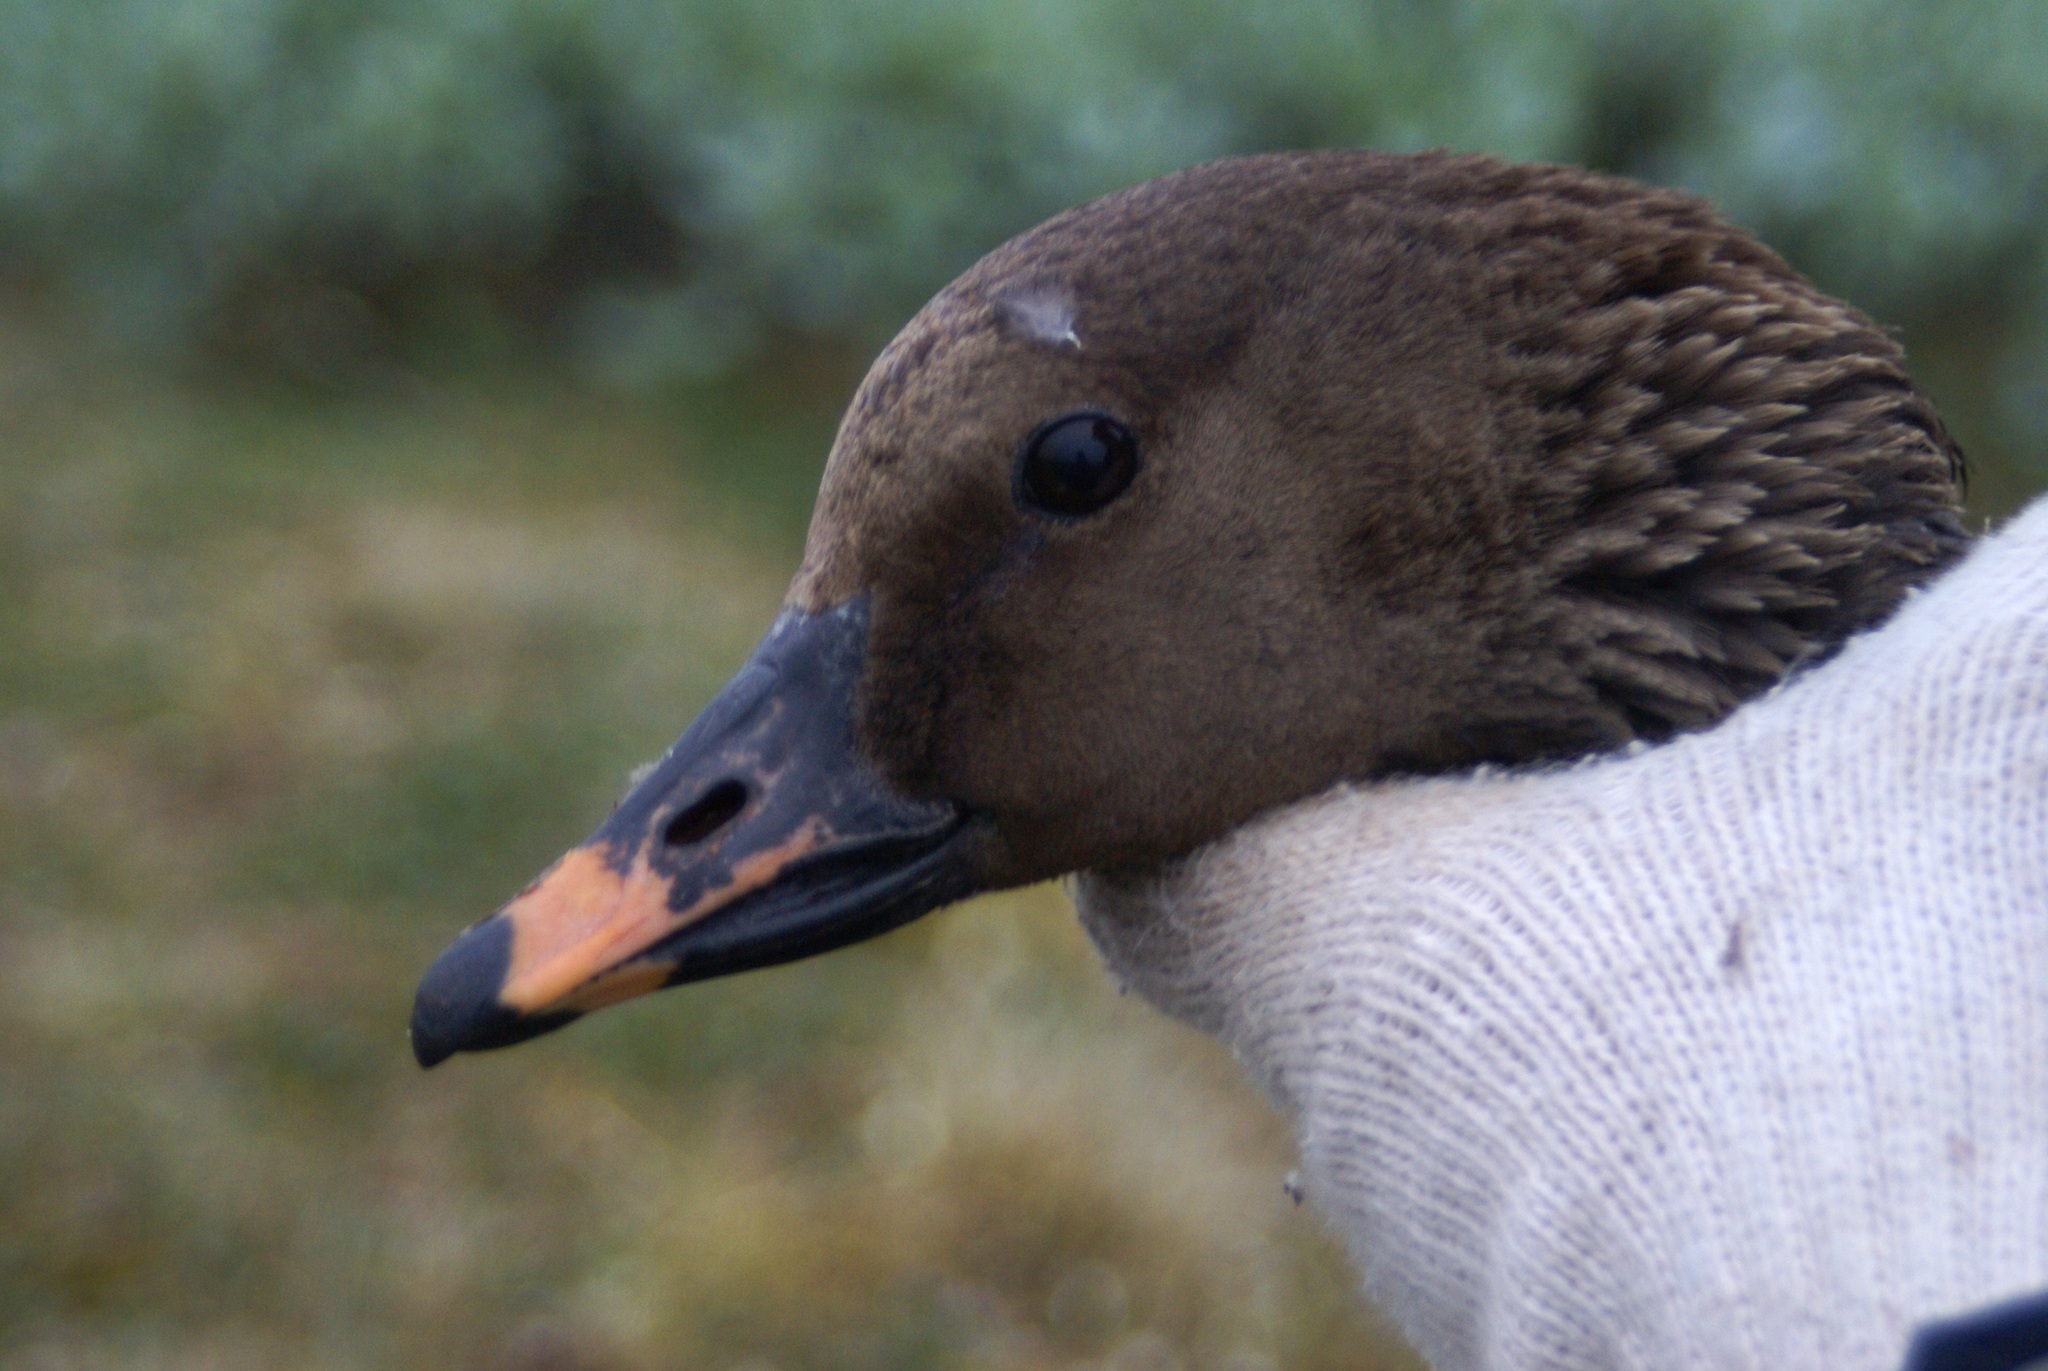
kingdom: Animalia
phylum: Chordata
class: Aves
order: Anseriformes
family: Anatidae
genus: Anser
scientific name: Anser serrirostris
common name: Tundra bean goose
